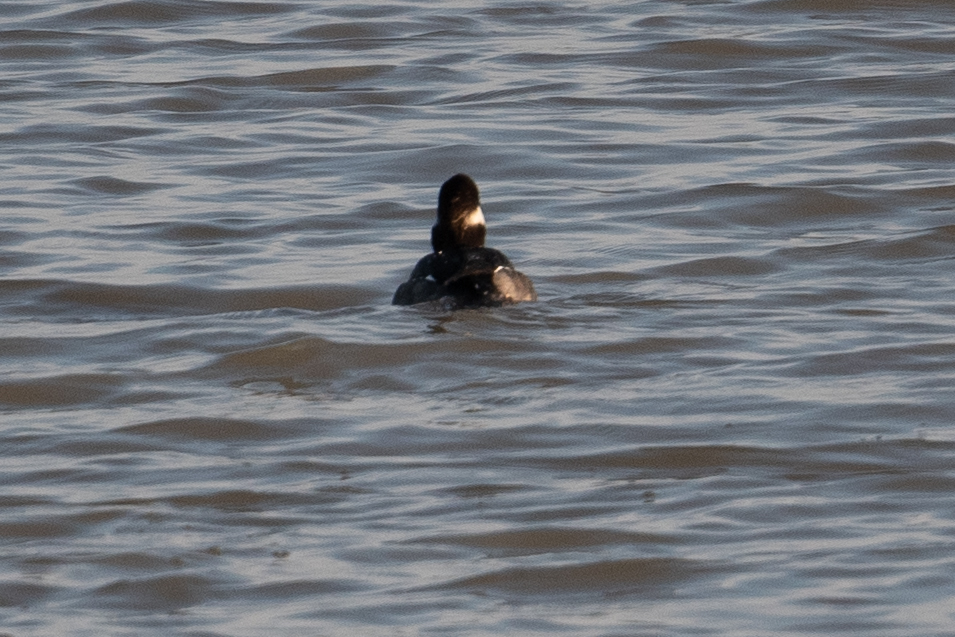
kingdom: Animalia
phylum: Chordata
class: Aves
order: Anseriformes
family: Anatidae
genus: Bucephala
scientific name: Bucephala albeola
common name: Bufflehead
